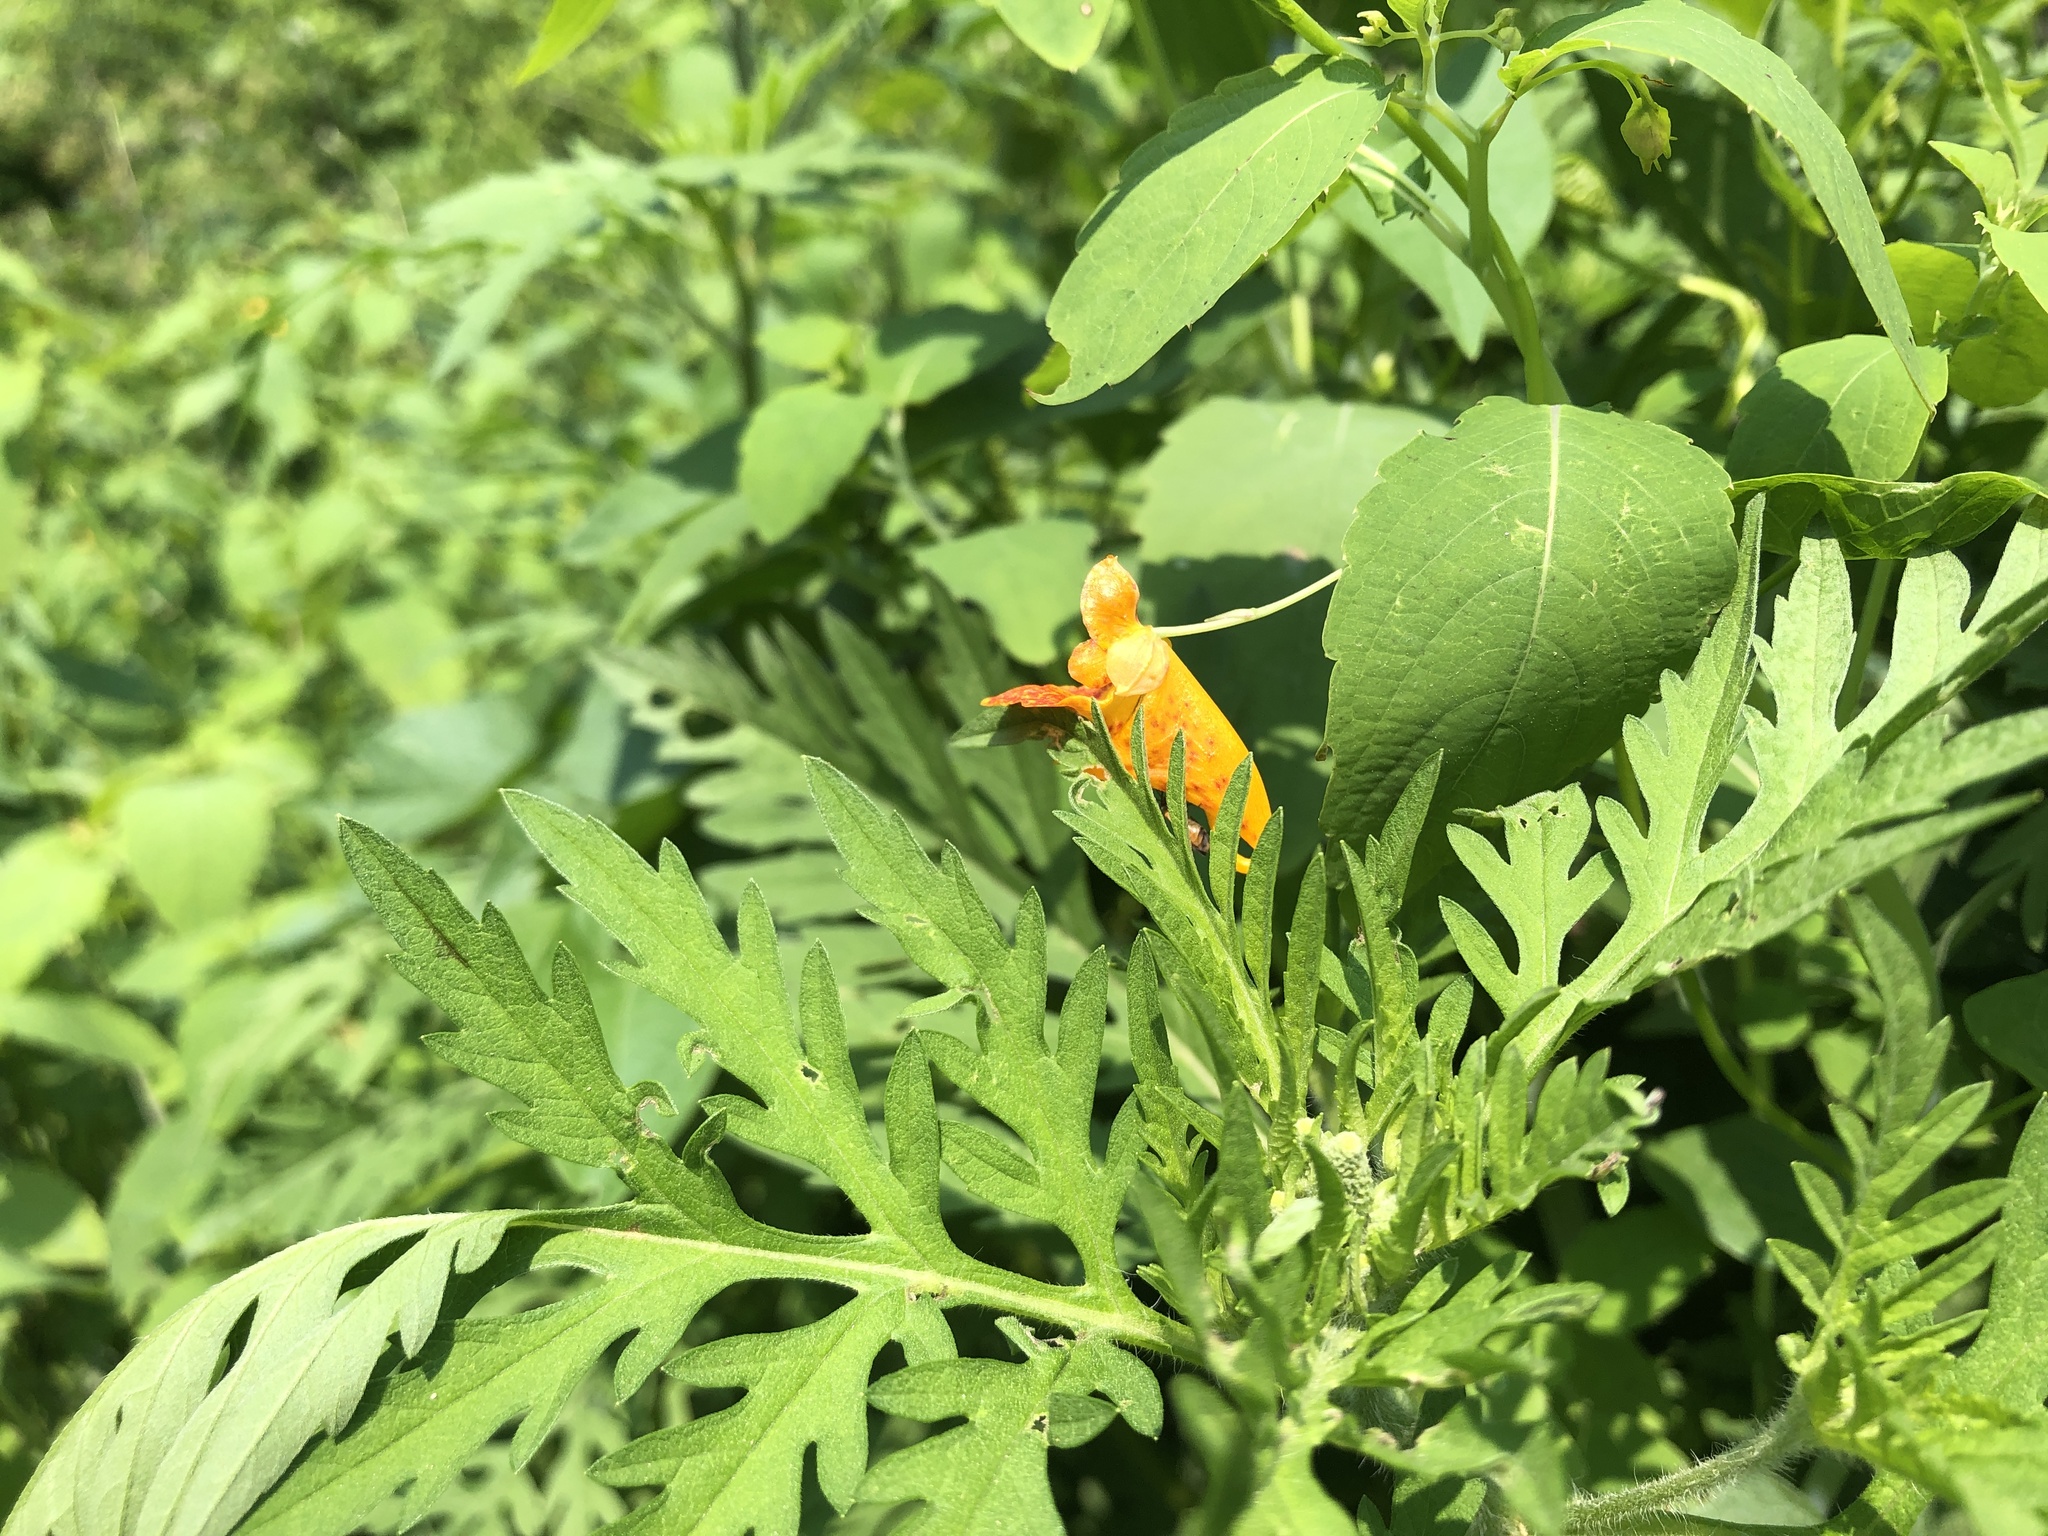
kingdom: Plantae
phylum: Tracheophyta
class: Magnoliopsida
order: Ericales
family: Balsaminaceae
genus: Impatiens
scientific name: Impatiens capensis
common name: Orange balsam
